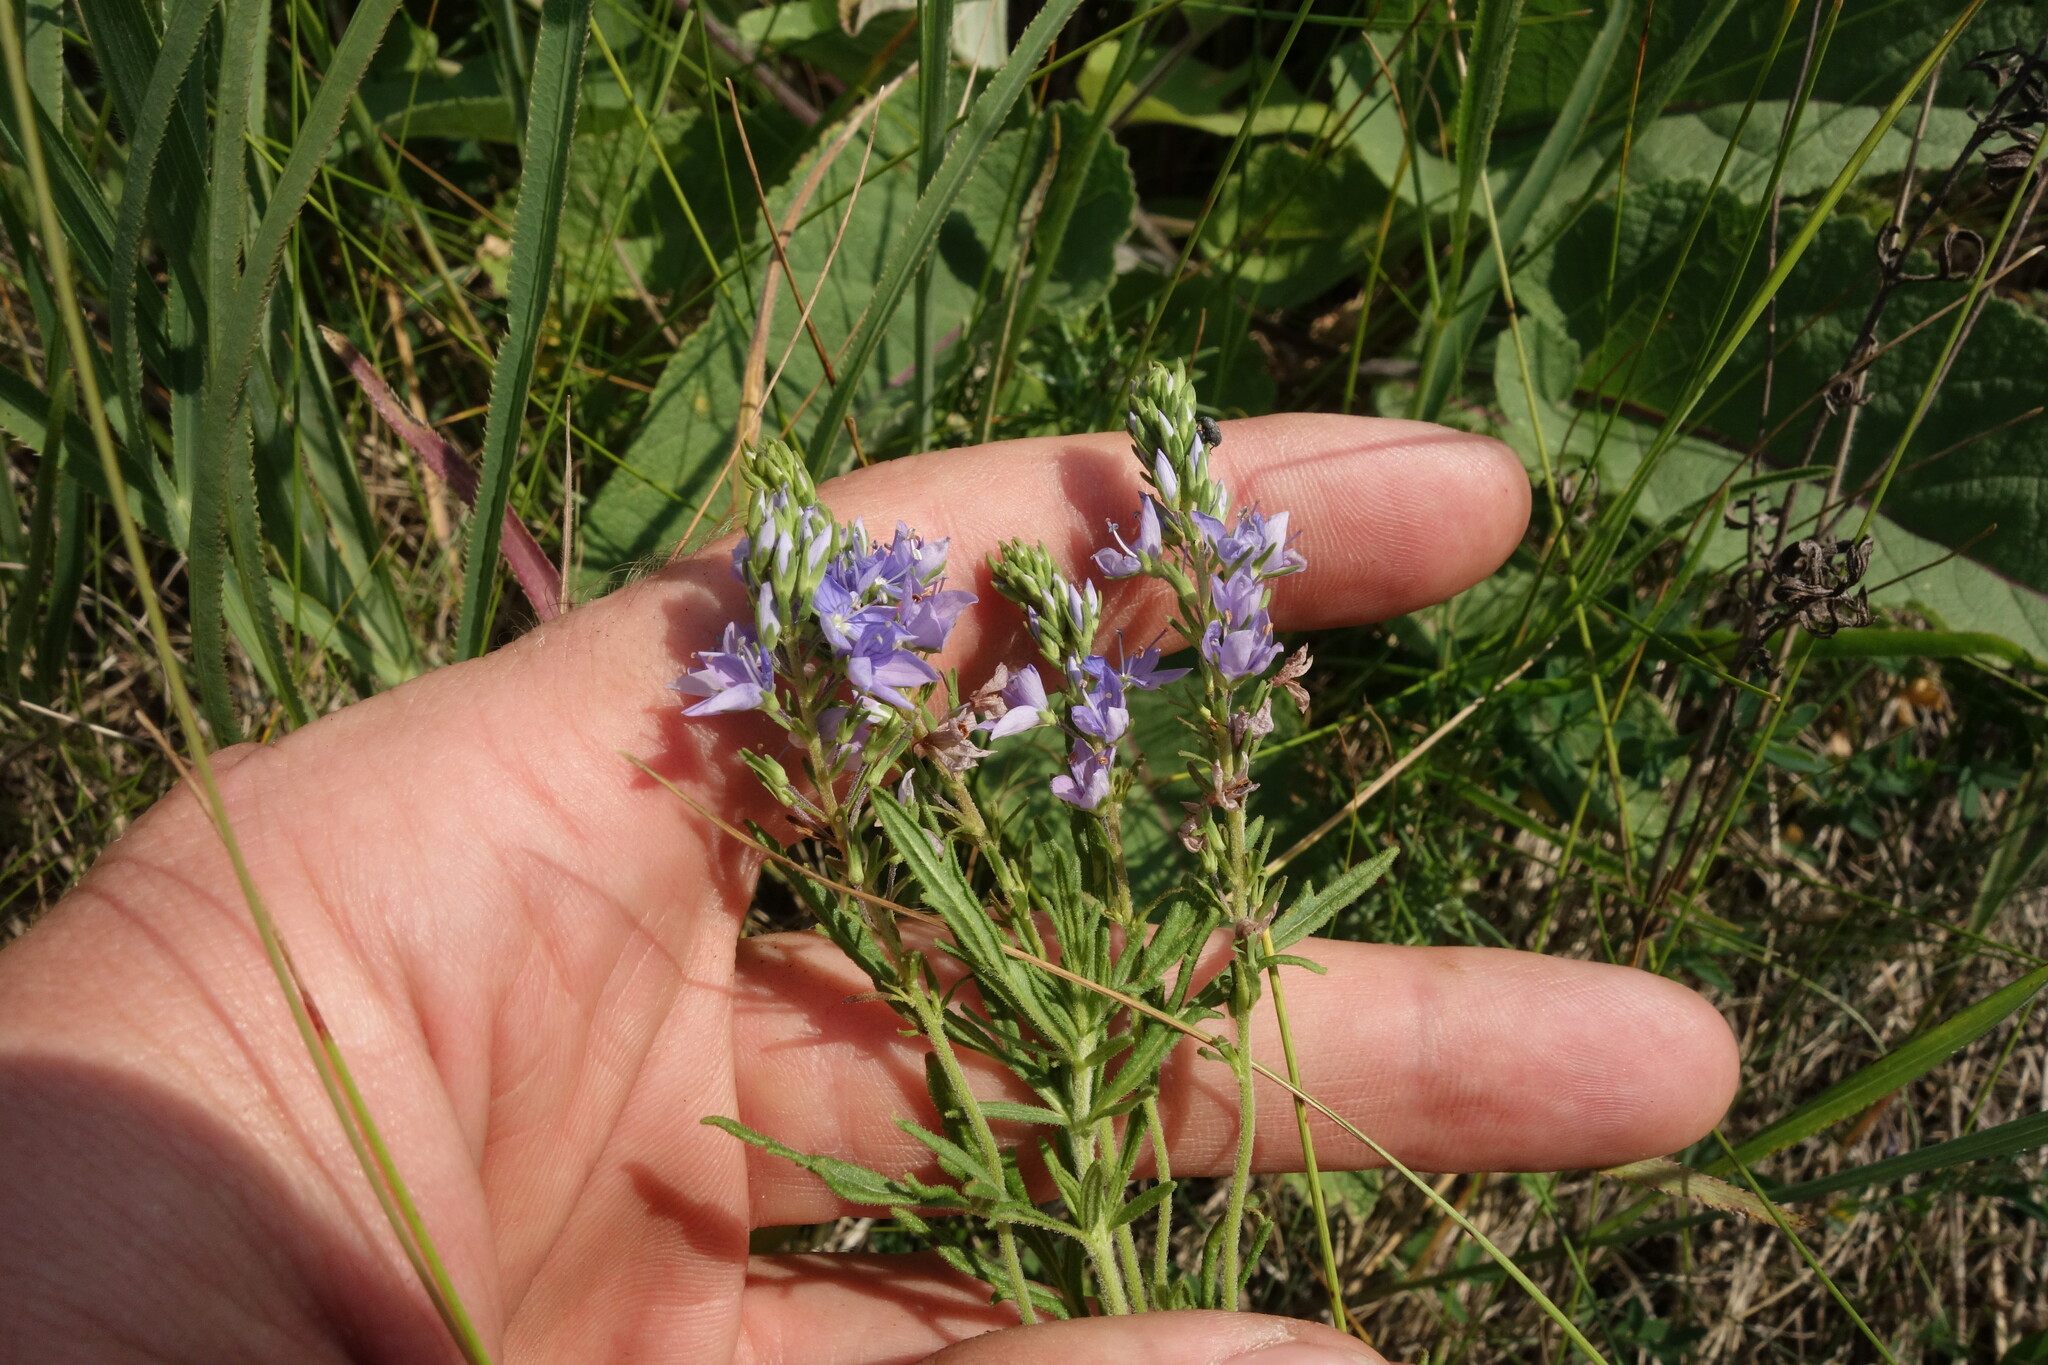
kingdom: Plantae
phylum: Tracheophyta
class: Magnoliopsida
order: Lamiales
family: Plantaginaceae
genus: Veronica
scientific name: Veronica austriaca
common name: Large speedwell
